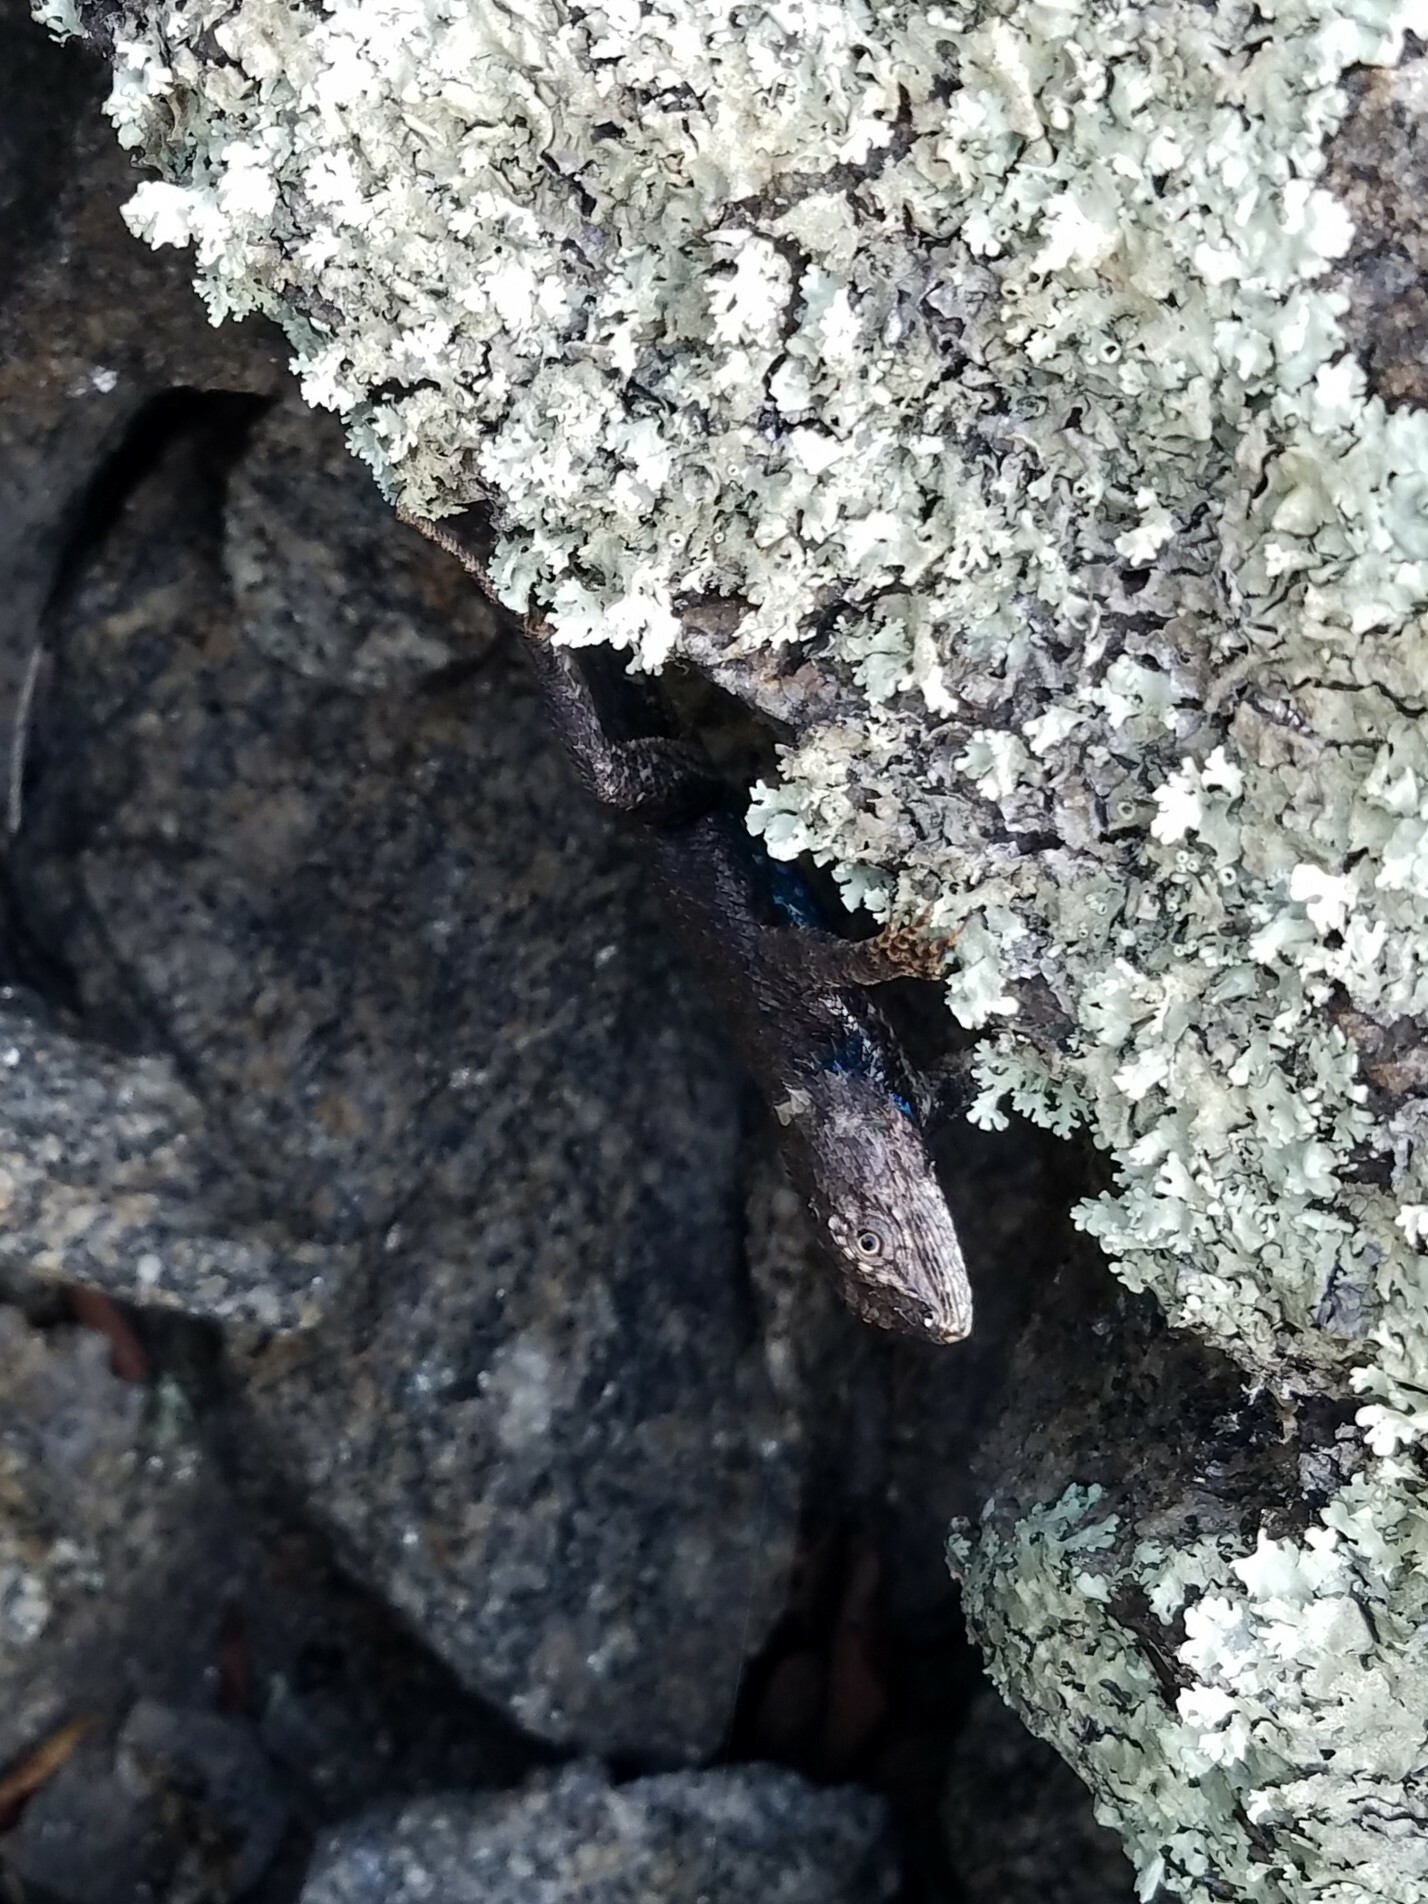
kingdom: Animalia
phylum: Chordata
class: Squamata
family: Phrynosomatidae
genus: Sceloporus
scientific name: Sceloporus undulatus
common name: Eastern fence lizard
